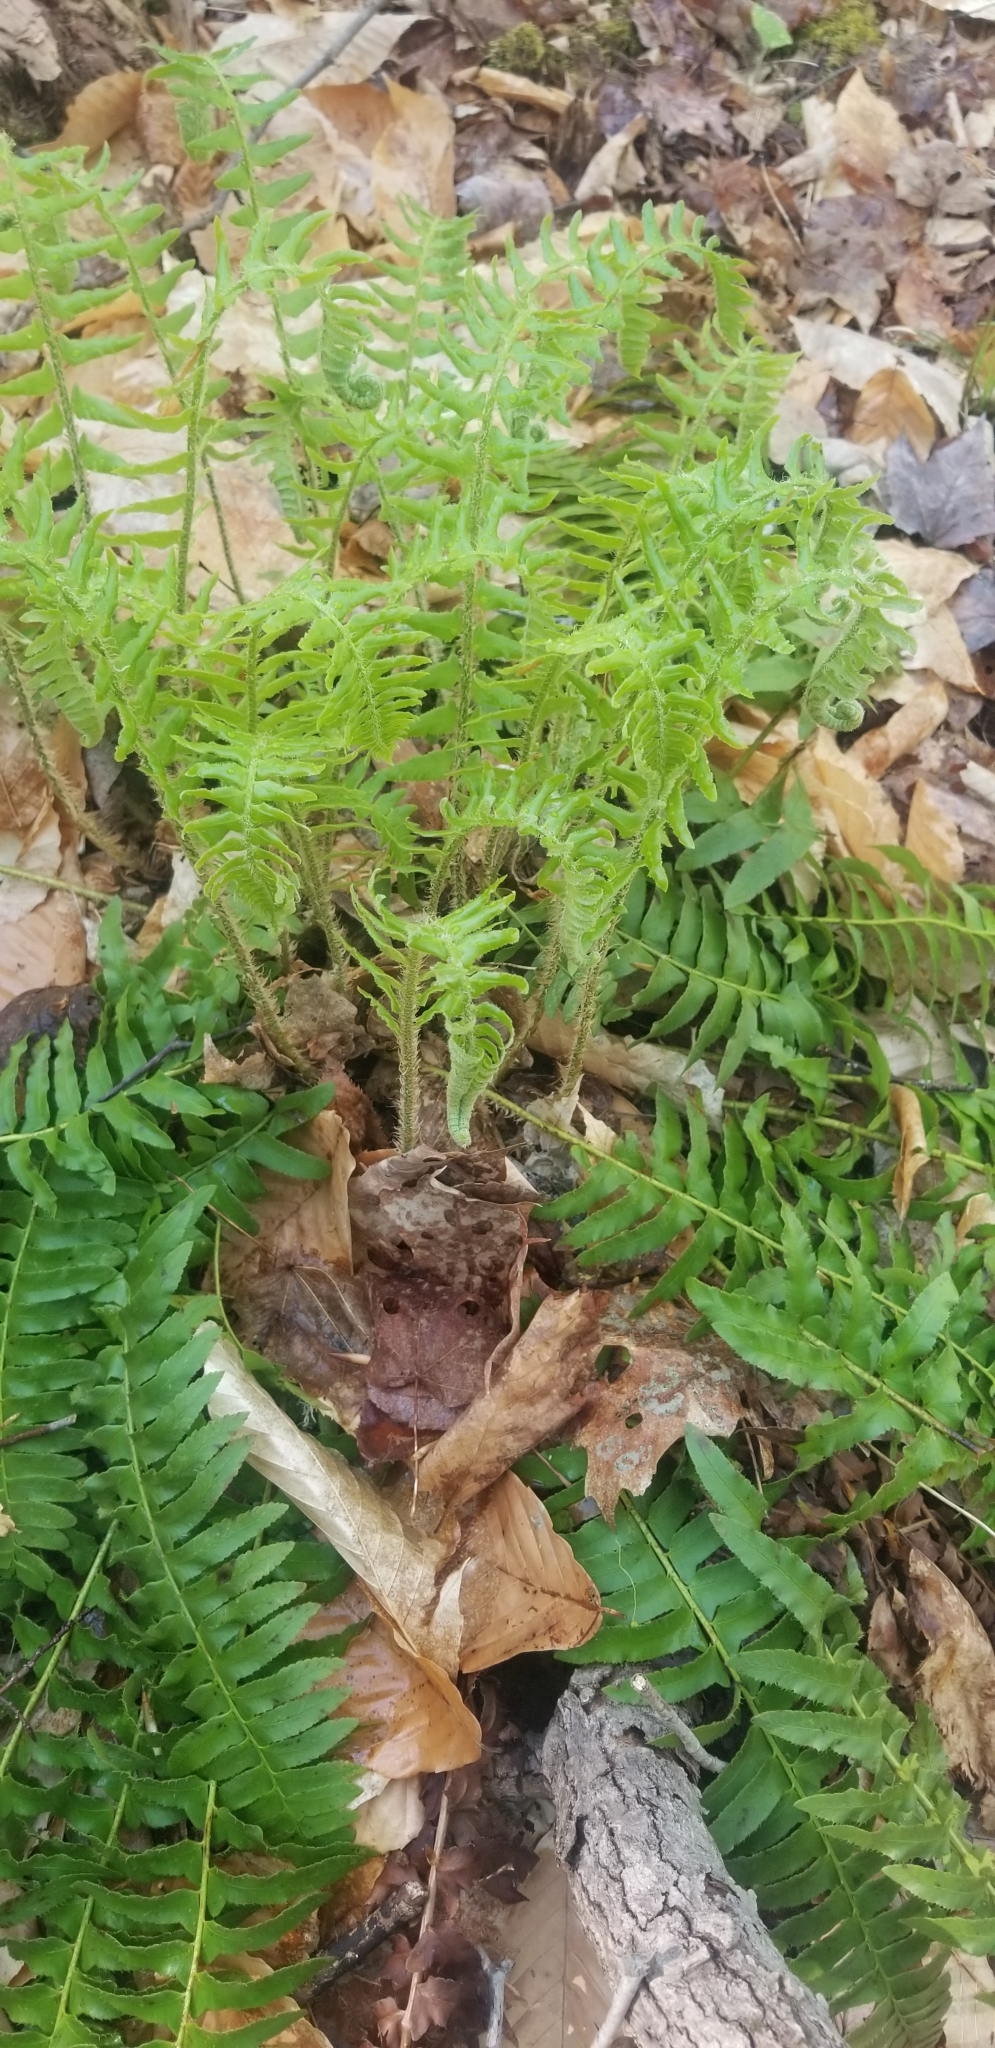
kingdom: Plantae
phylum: Tracheophyta
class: Polypodiopsida
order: Polypodiales
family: Dryopteridaceae
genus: Polystichum
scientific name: Polystichum acrostichoides
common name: Christmas fern
